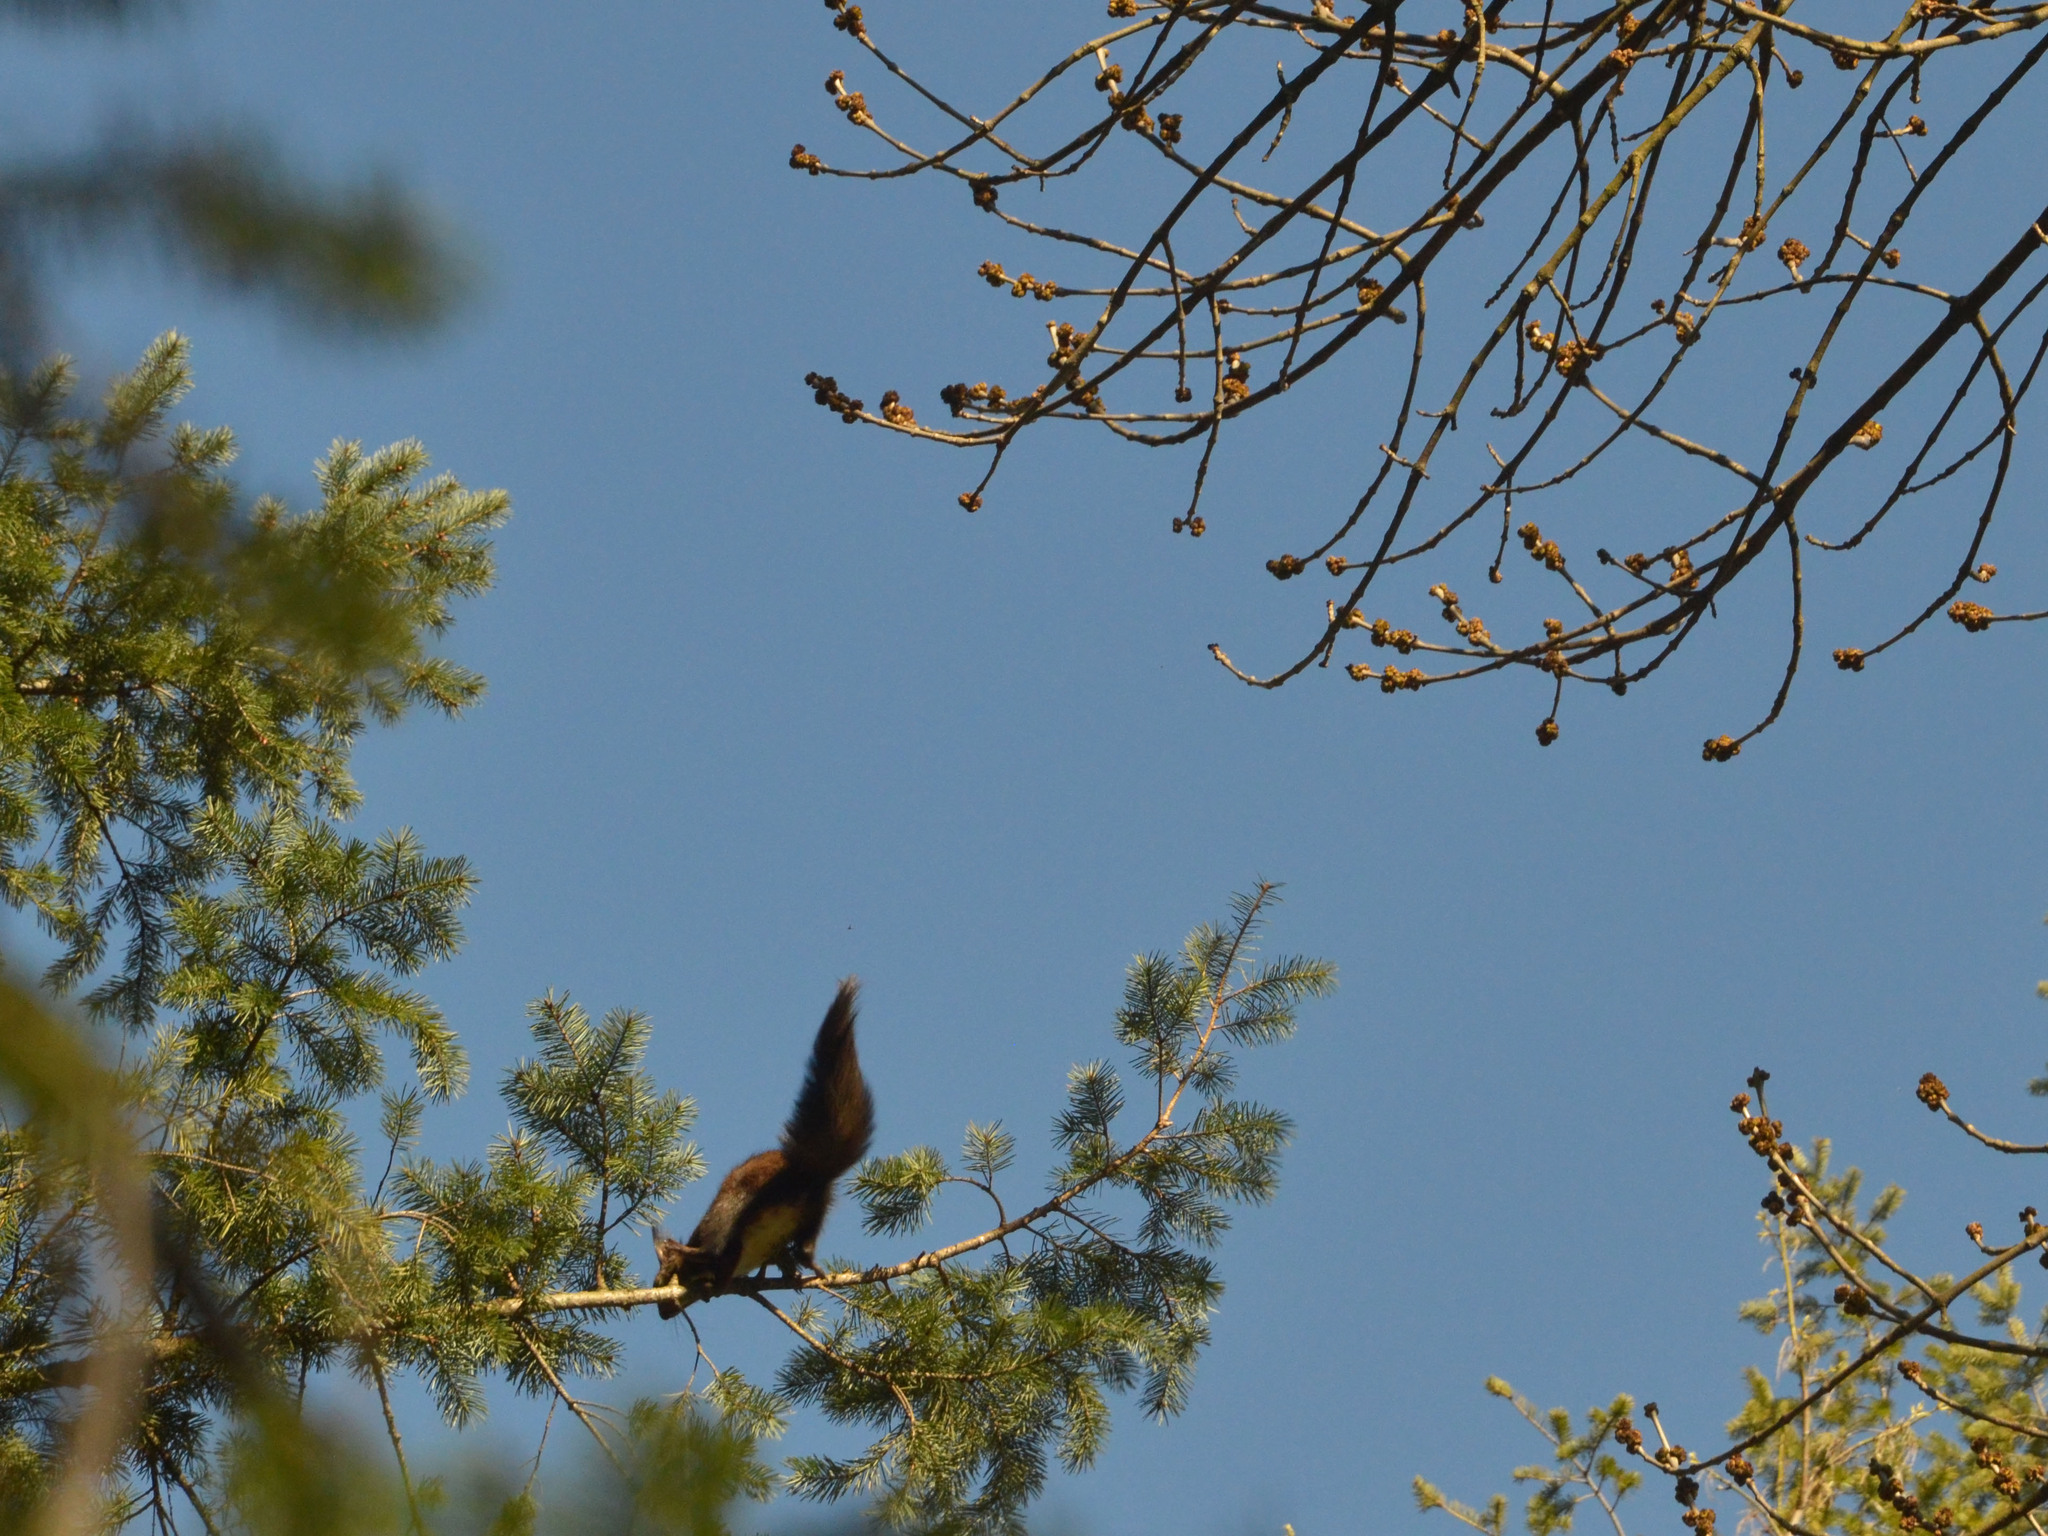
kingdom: Animalia
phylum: Chordata
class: Mammalia
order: Rodentia
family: Sciuridae
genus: Sciurus
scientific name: Sciurus vulgaris
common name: Eurasian red squirrel
